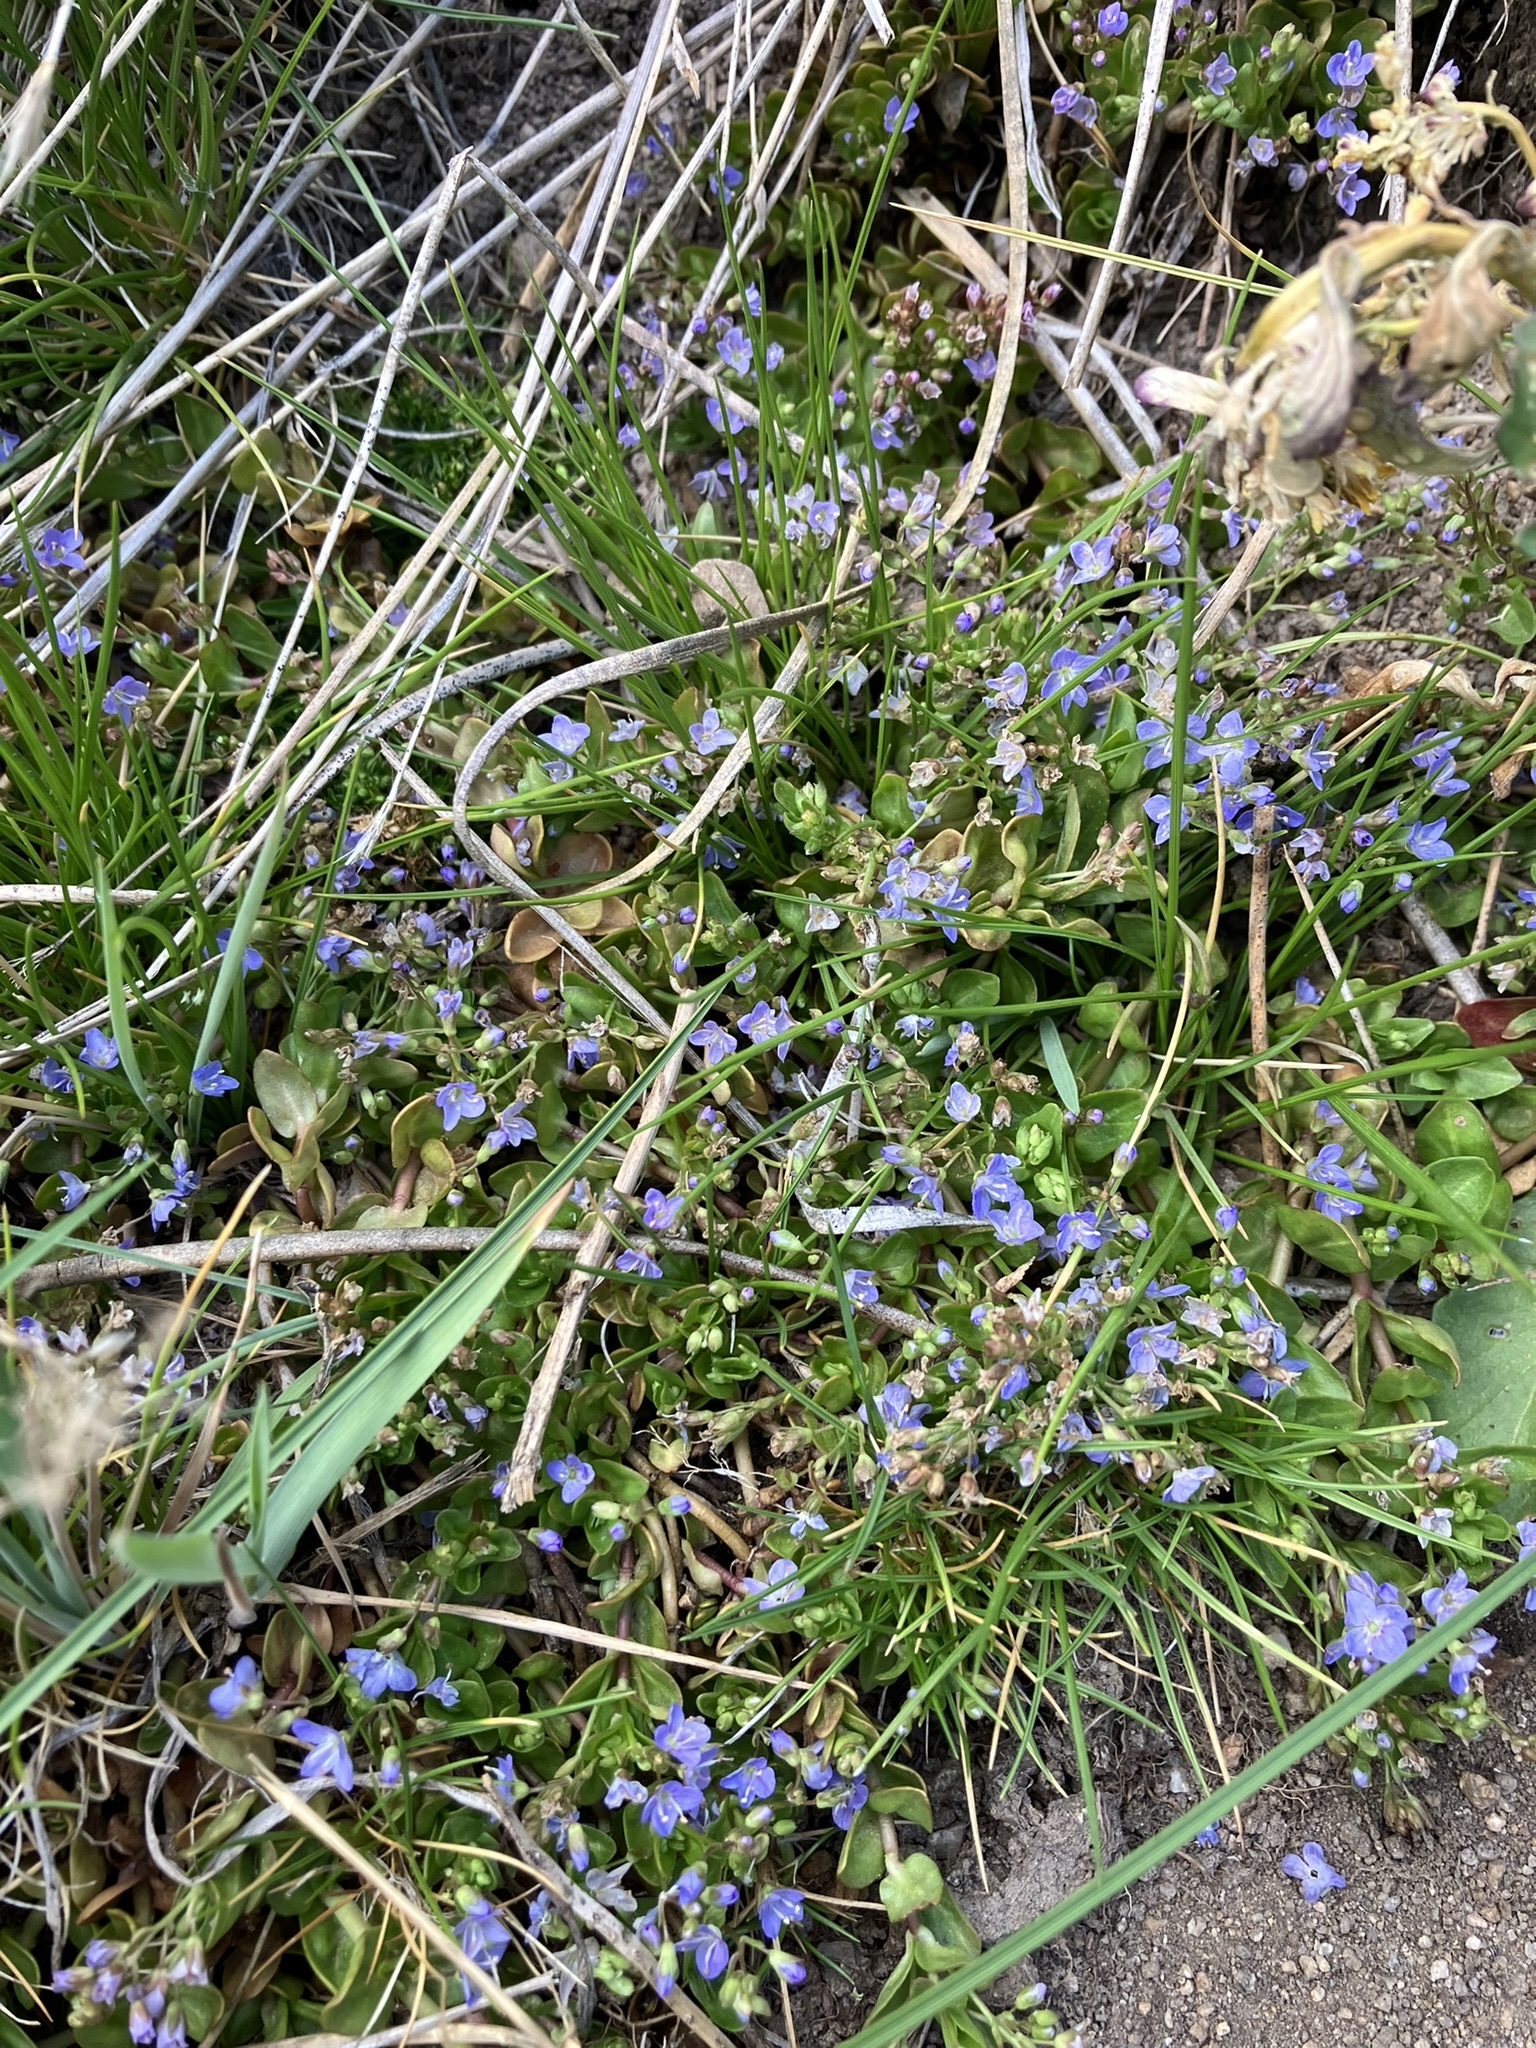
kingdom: Plantae
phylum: Tracheophyta
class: Magnoliopsida
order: Lamiales
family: Plantaginaceae
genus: Veronica
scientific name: Veronica americana
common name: American brooklime
